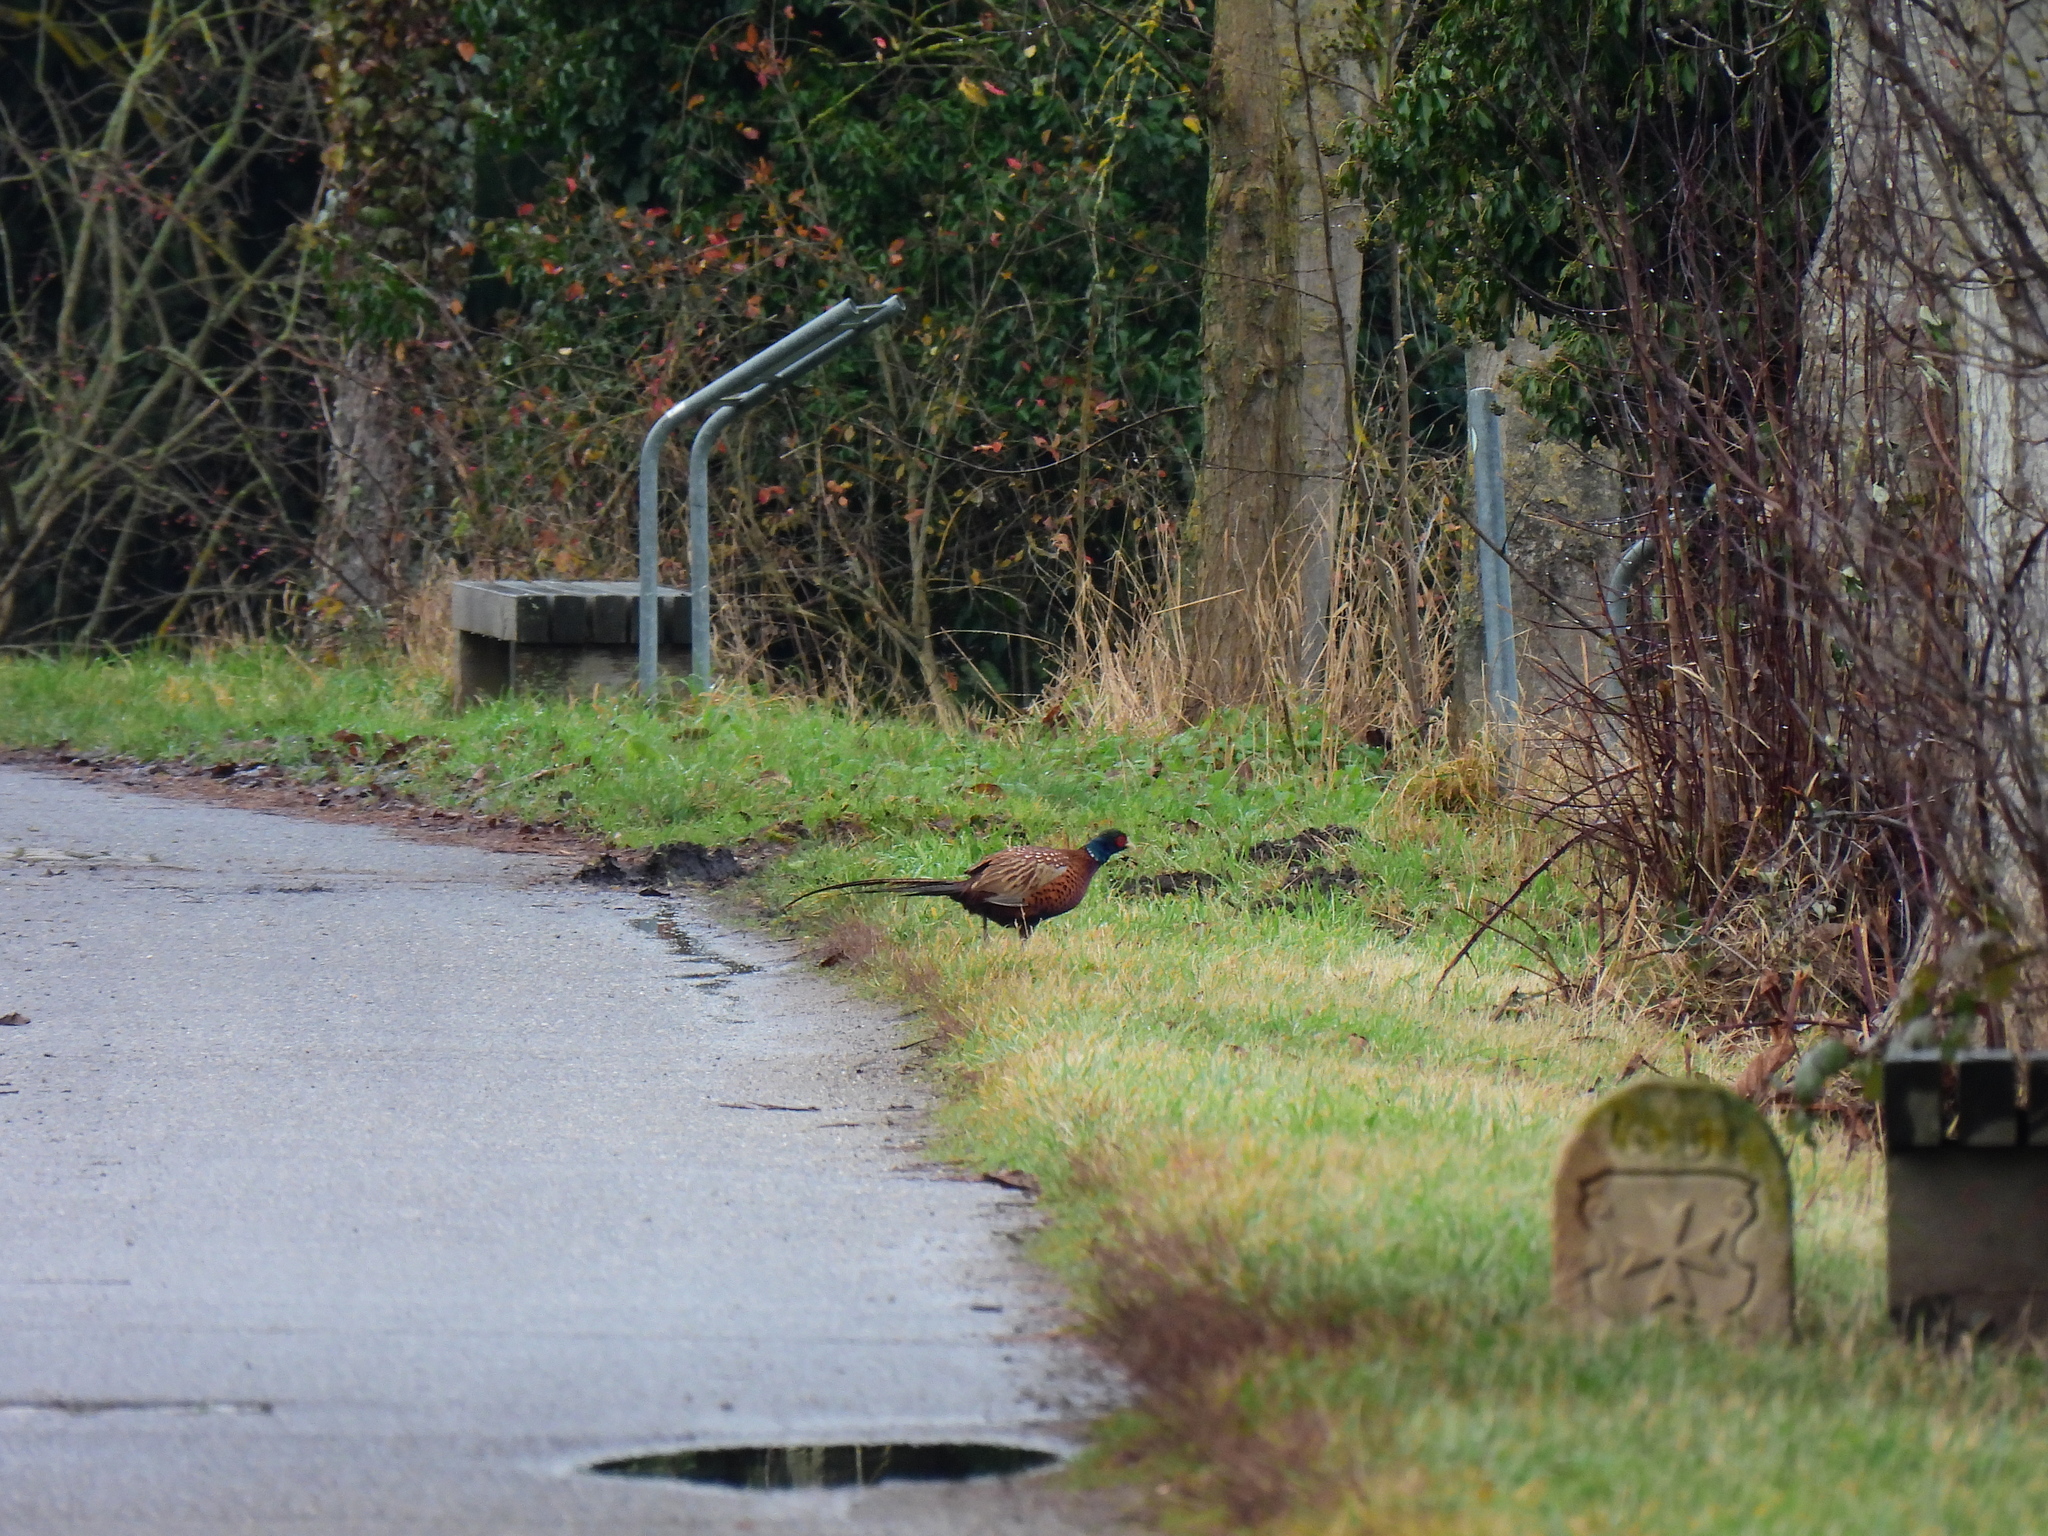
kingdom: Animalia
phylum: Chordata
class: Aves
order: Galliformes
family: Phasianidae
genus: Phasianus
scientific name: Phasianus colchicus
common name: Common pheasant
